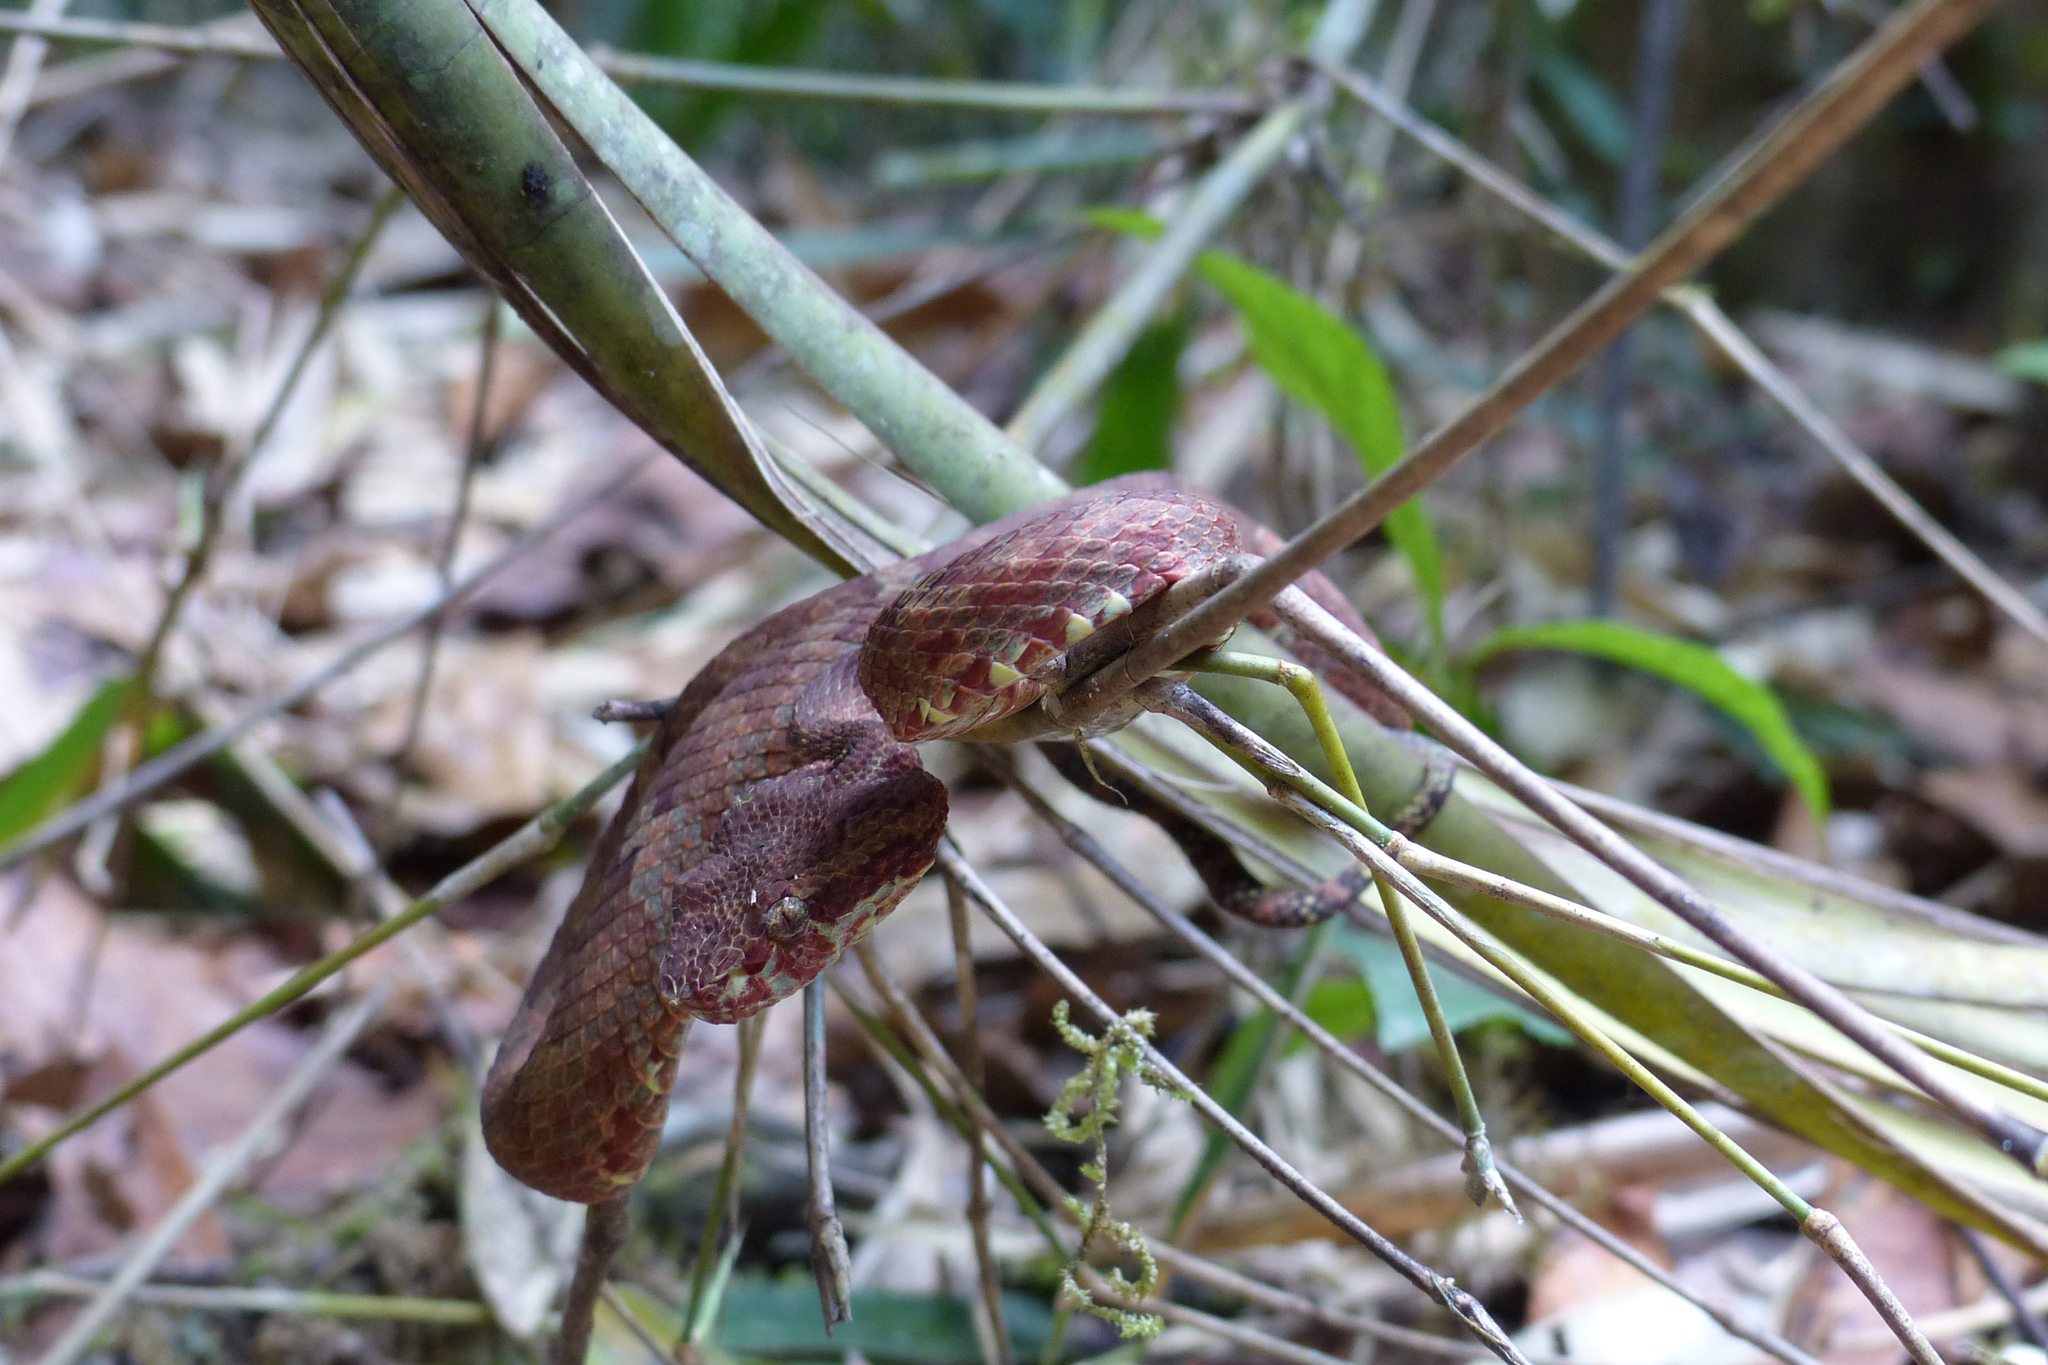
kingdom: Animalia
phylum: Chordata
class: Squamata
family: Viperidae
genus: Craspedocephalus
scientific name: Craspedocephalus malabaricus
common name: Malabarian pit viper
